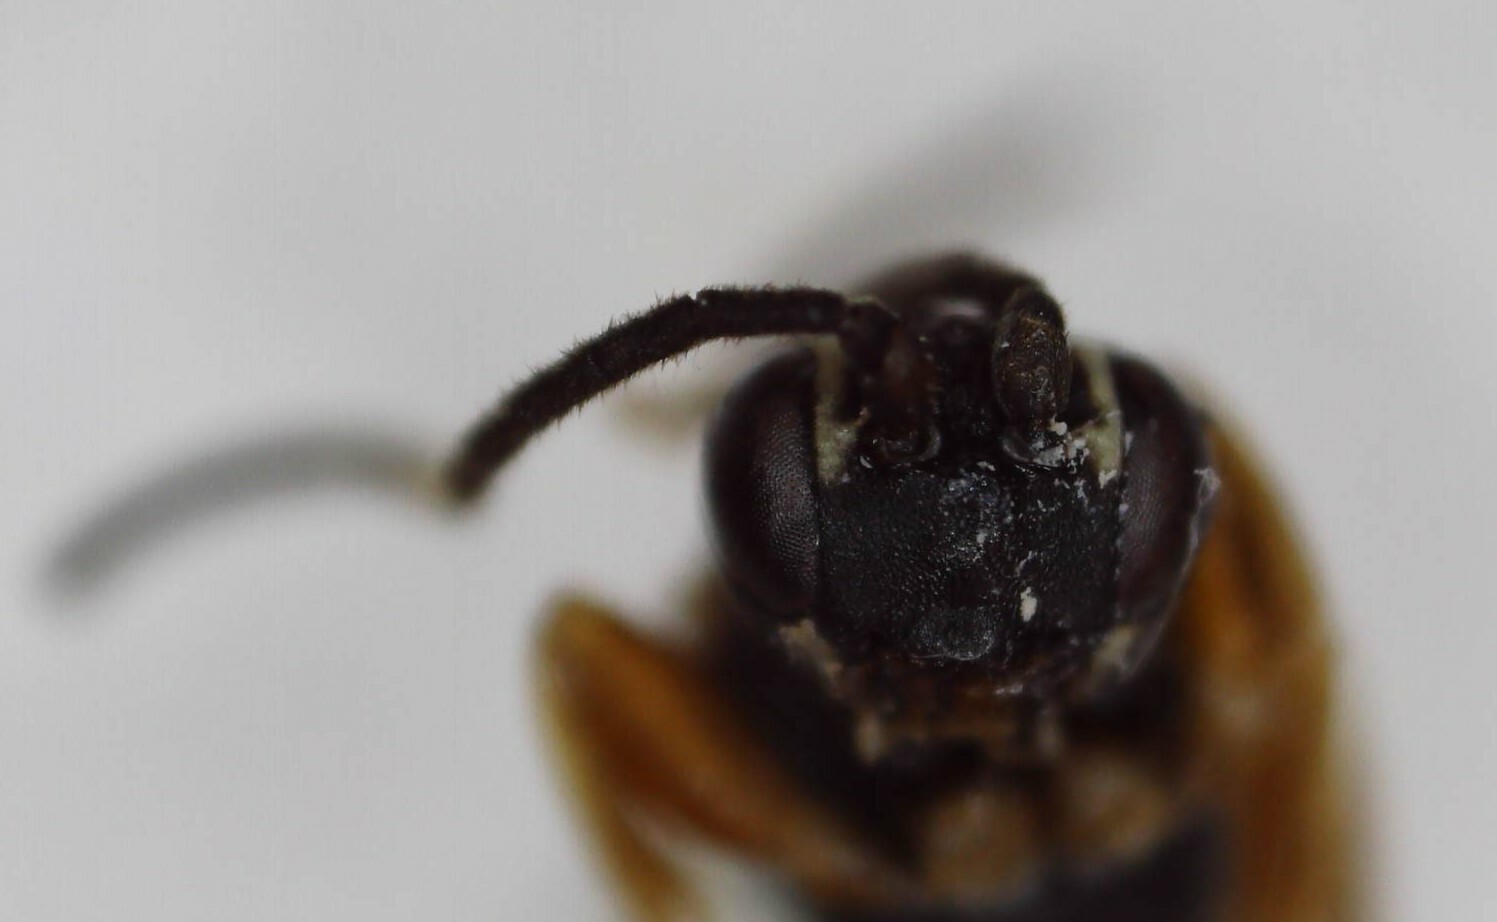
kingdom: Animalia
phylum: Arthropoda
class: Insecta
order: Hymenoptera
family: Ichneumonidae
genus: Sphecophaga
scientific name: Sphecophaga vesparum
